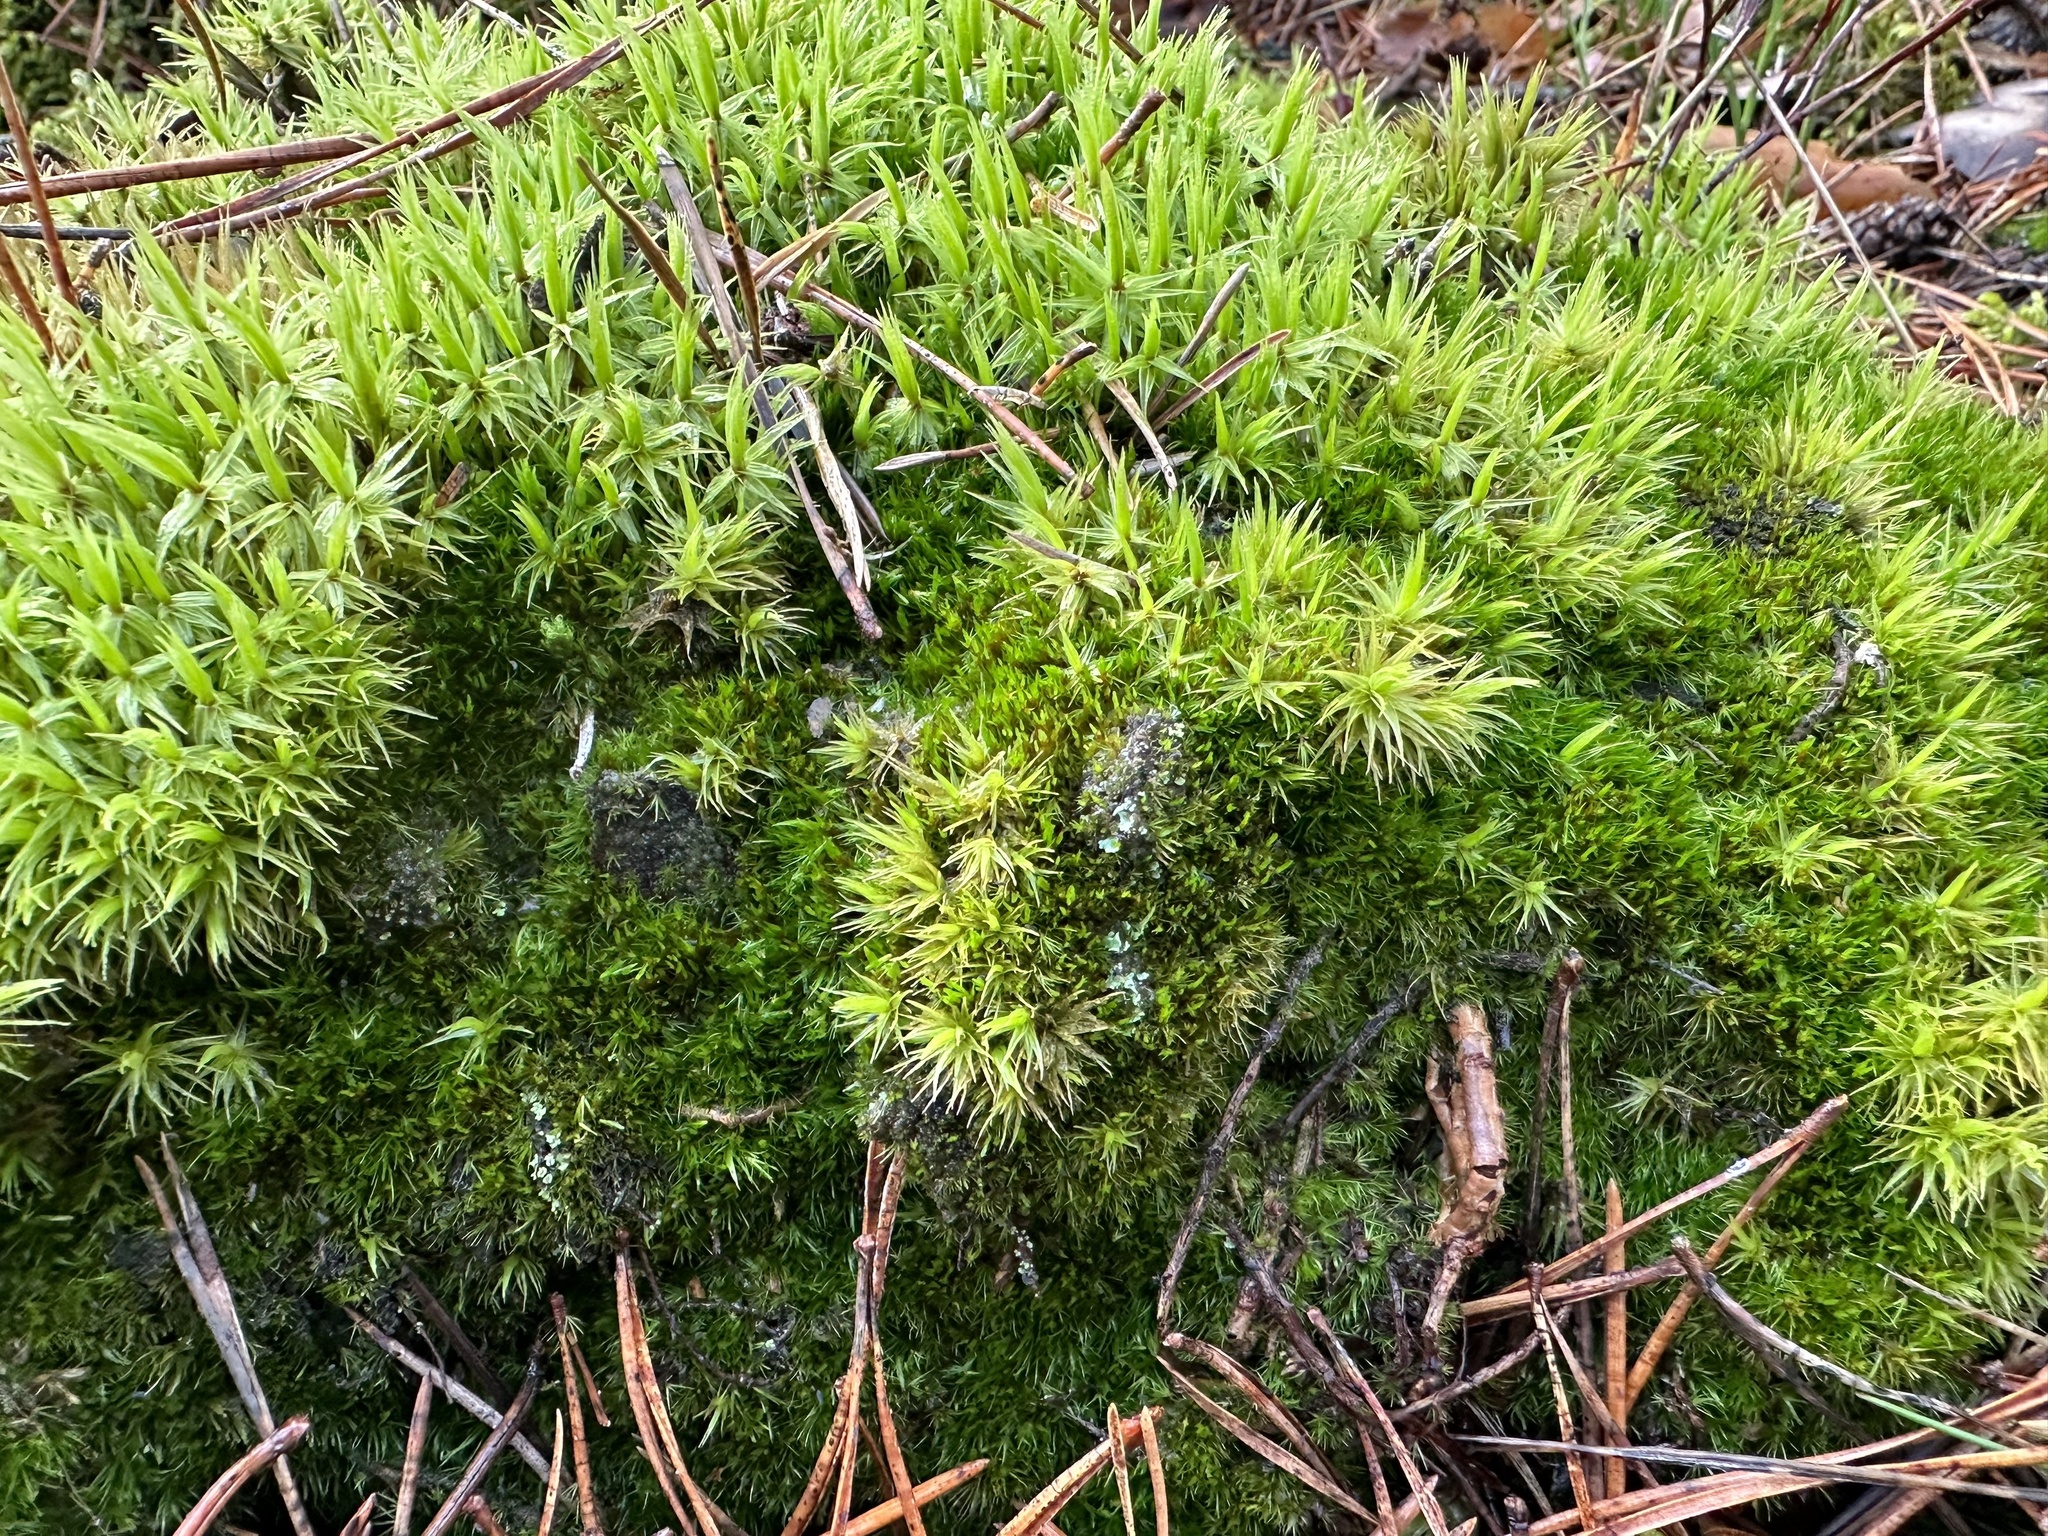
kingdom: Plantae
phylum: Bryophyta
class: Bryopsida
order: Dicranales
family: Dicranaceae
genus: Dicranum
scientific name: Dicranum polysetum
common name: Rugose fork-moss
